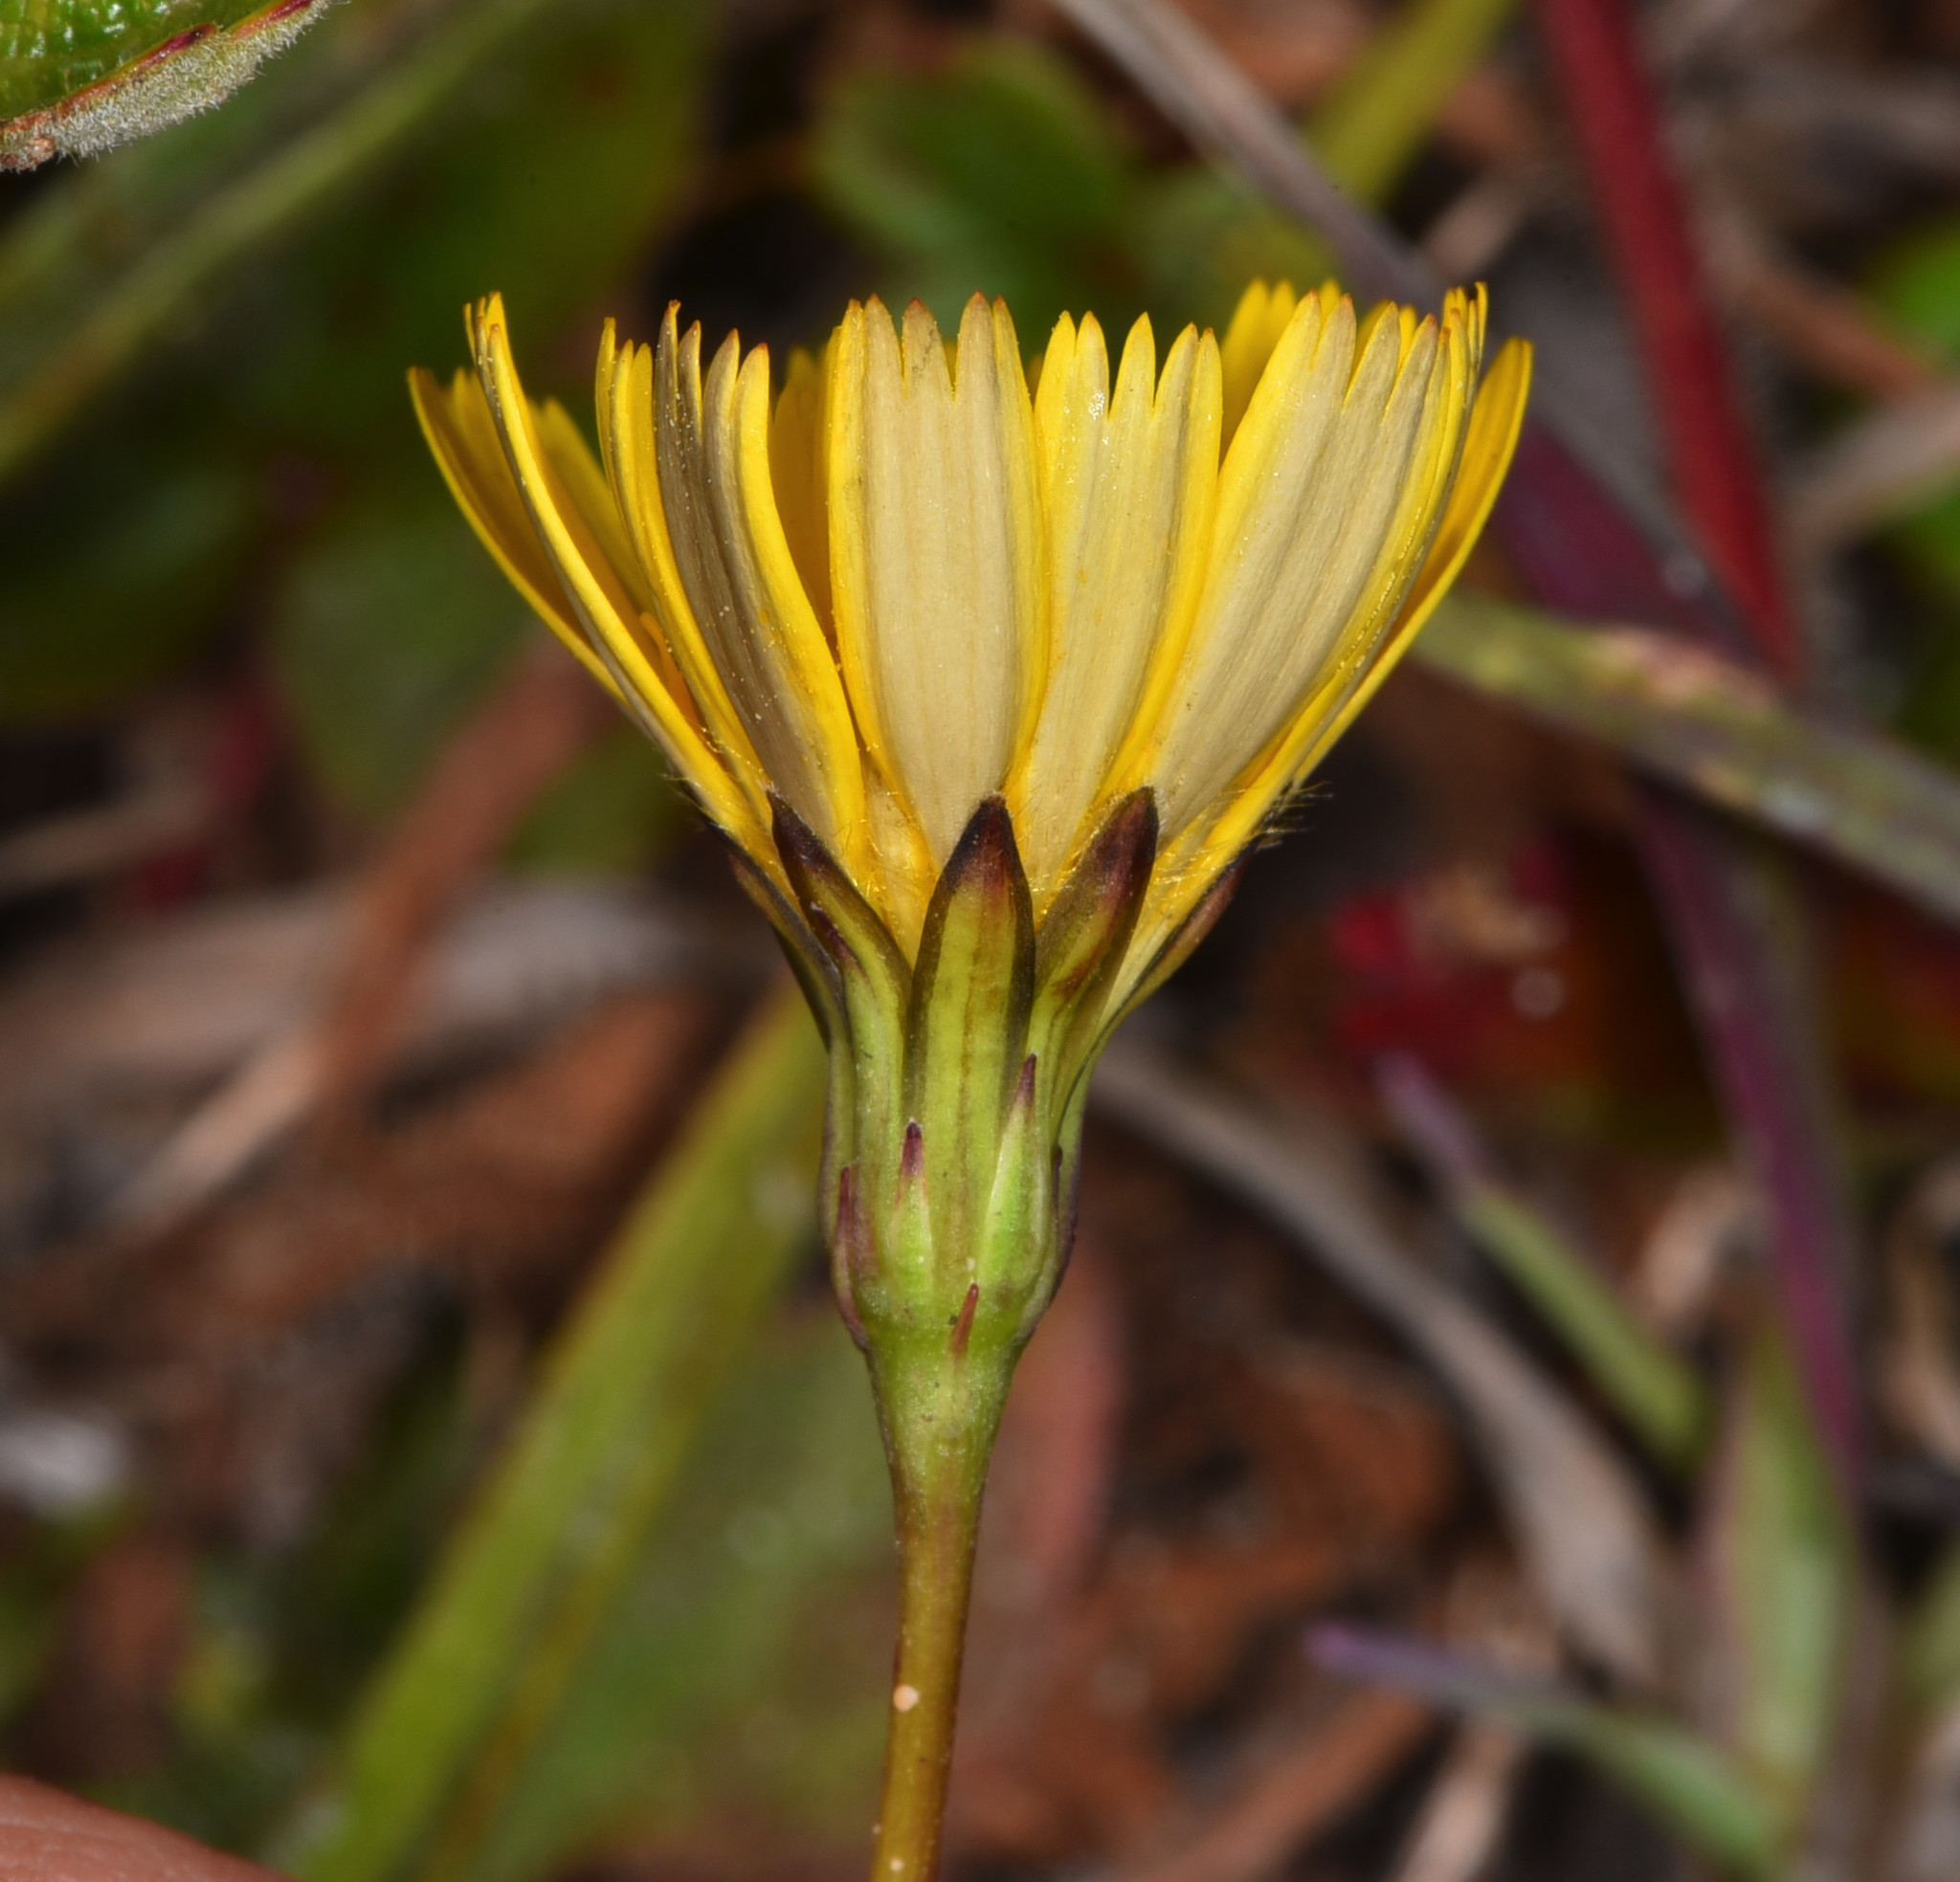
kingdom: Plantae
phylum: Tracheophyta
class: Magnoliopsida
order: Asterales
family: Asteraceae
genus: Hypochaeris
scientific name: Hypochaeris radicata
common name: Flatweed
